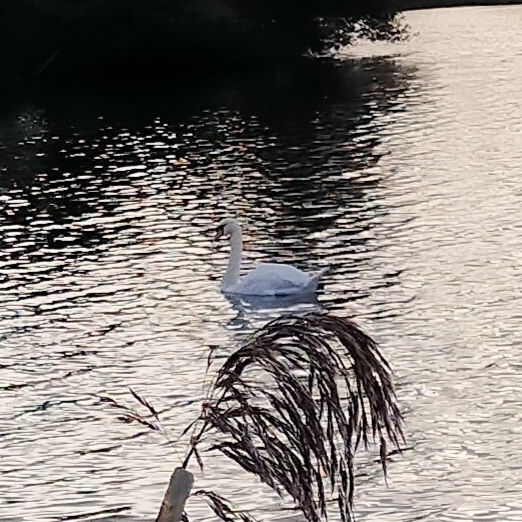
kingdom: Animalia
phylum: Chordata
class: Aves
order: Anseriformes
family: Anatidae
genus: Cygnus
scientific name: Cygnus olor
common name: Mute swan
